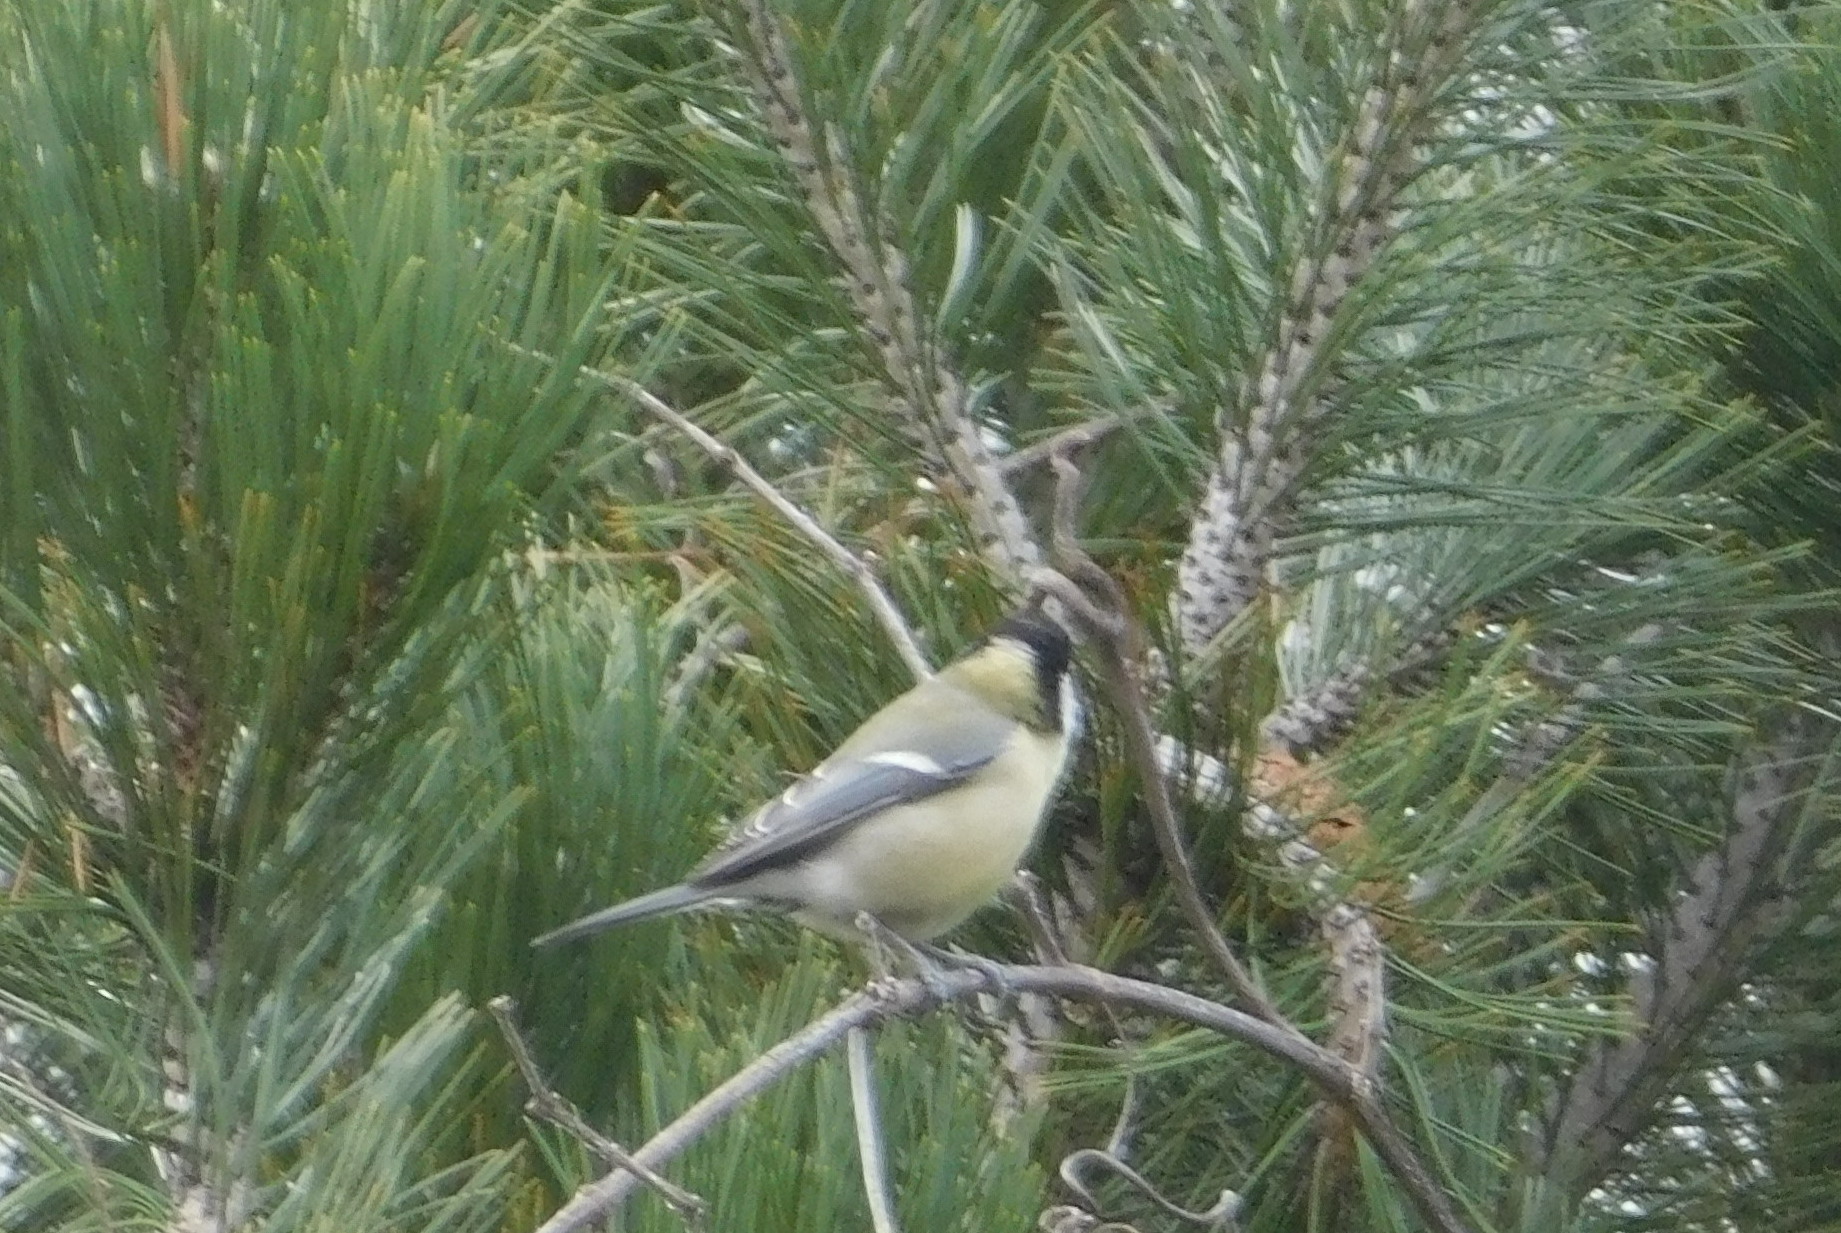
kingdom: Animalia
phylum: Chordata
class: Aves
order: Passeriformes
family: Paridae
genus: Parus
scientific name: Parus major
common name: Great tit
